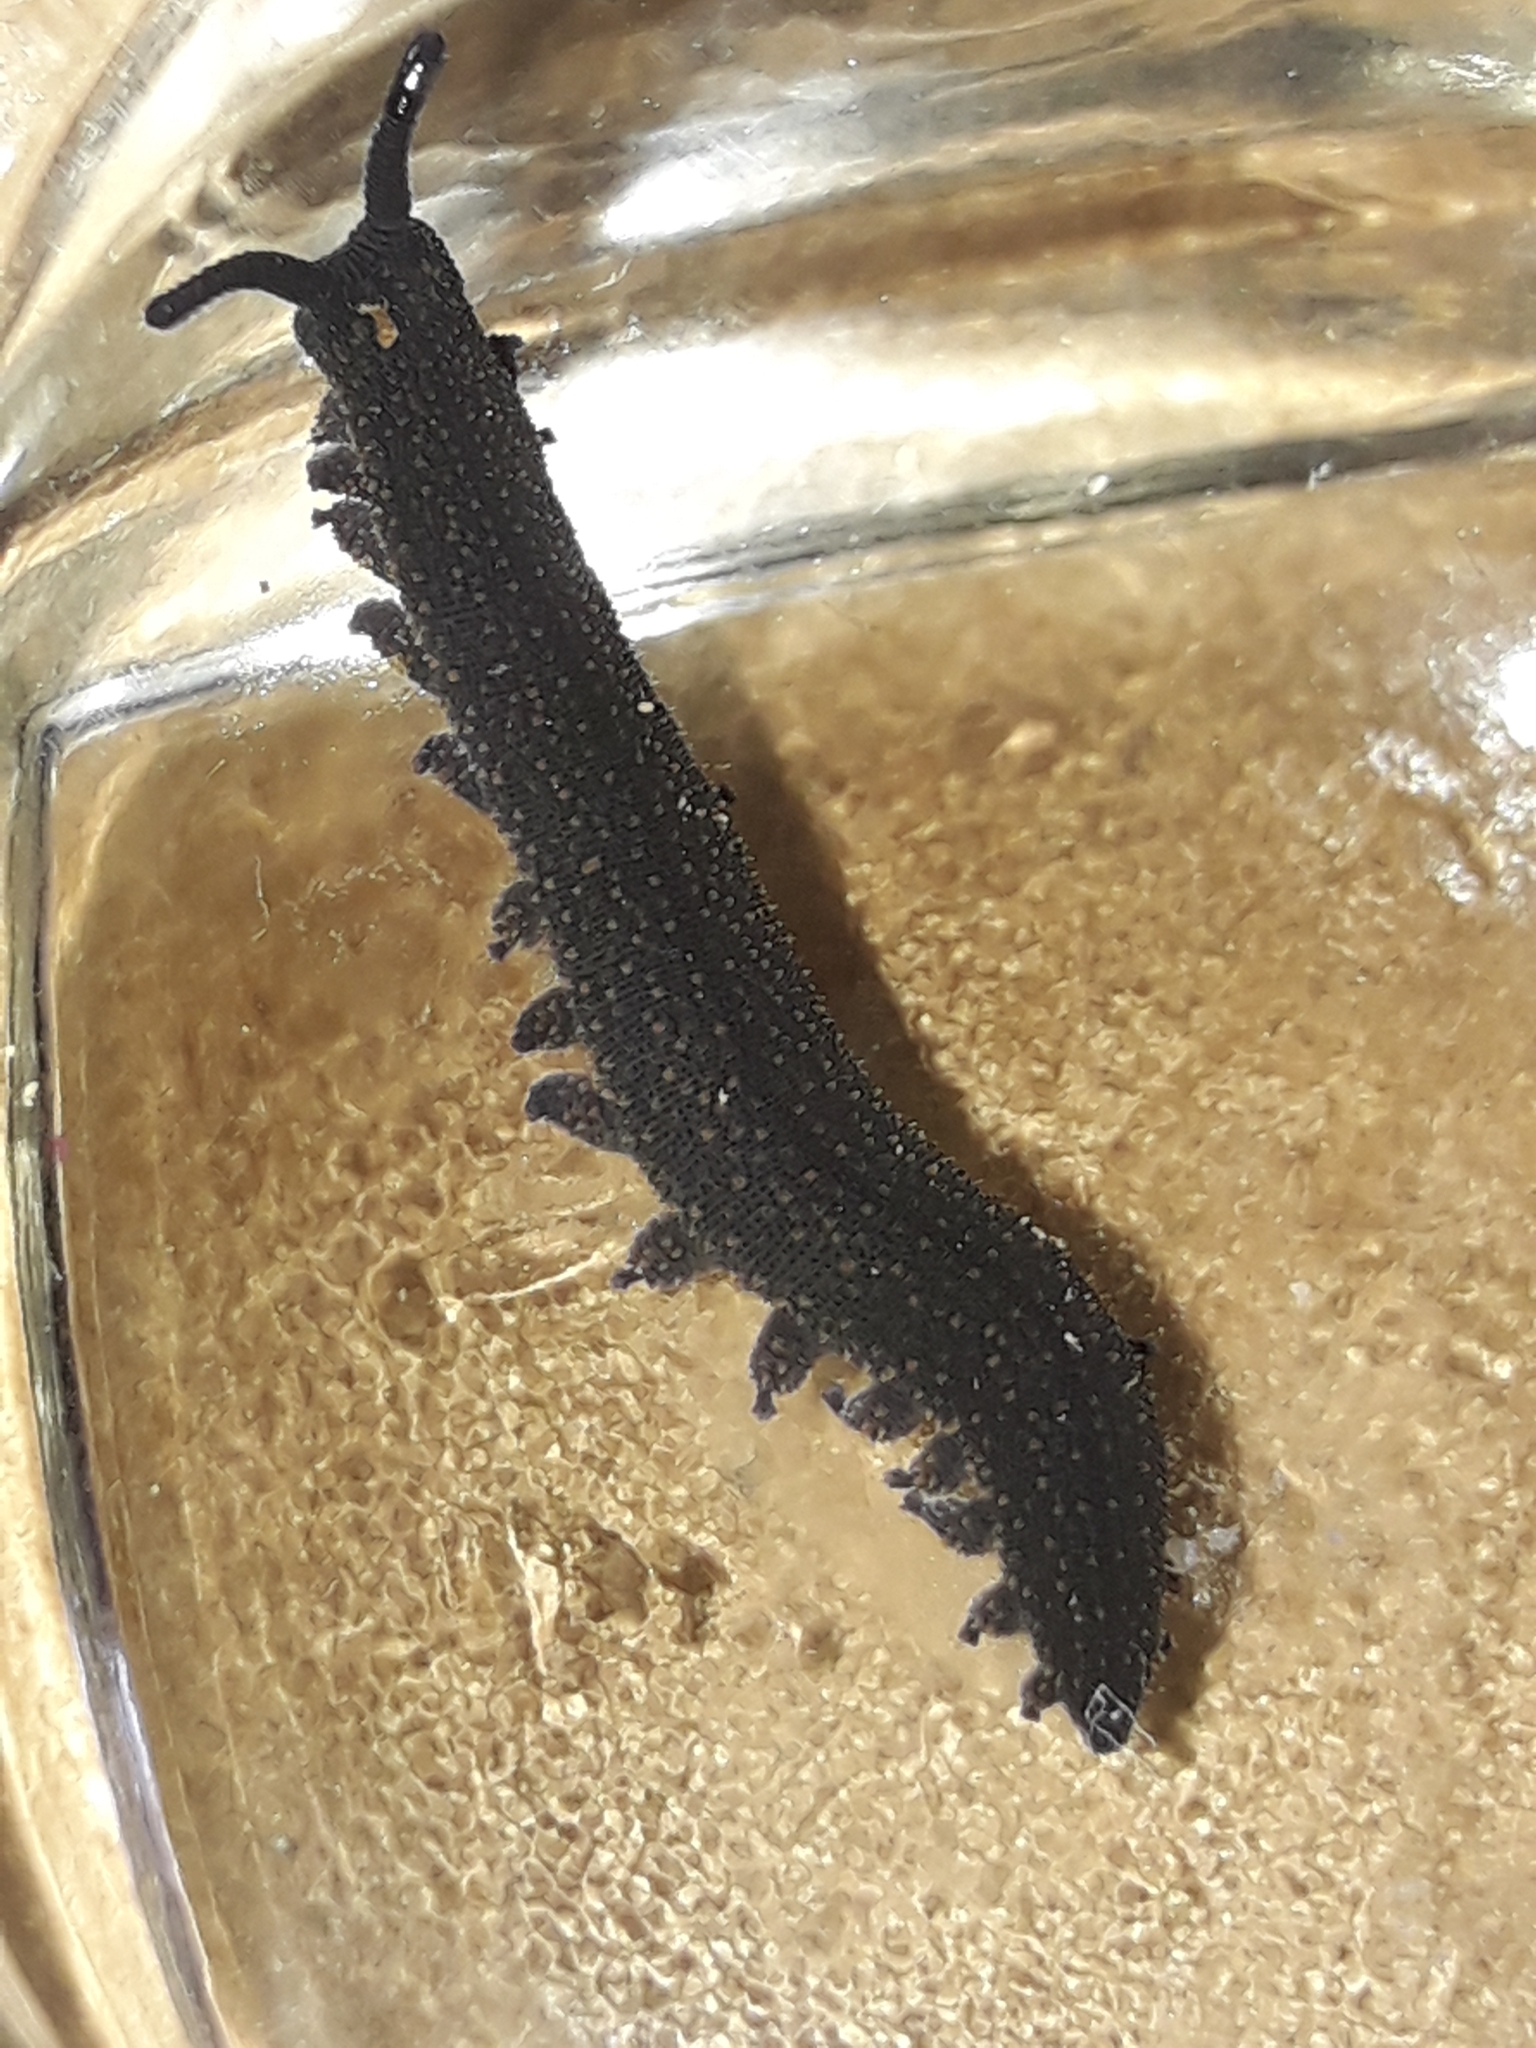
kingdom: Animalia
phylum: Onychophora
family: Peripatopsidae
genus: Peripatoides
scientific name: Peripatoides novaezealandiae
